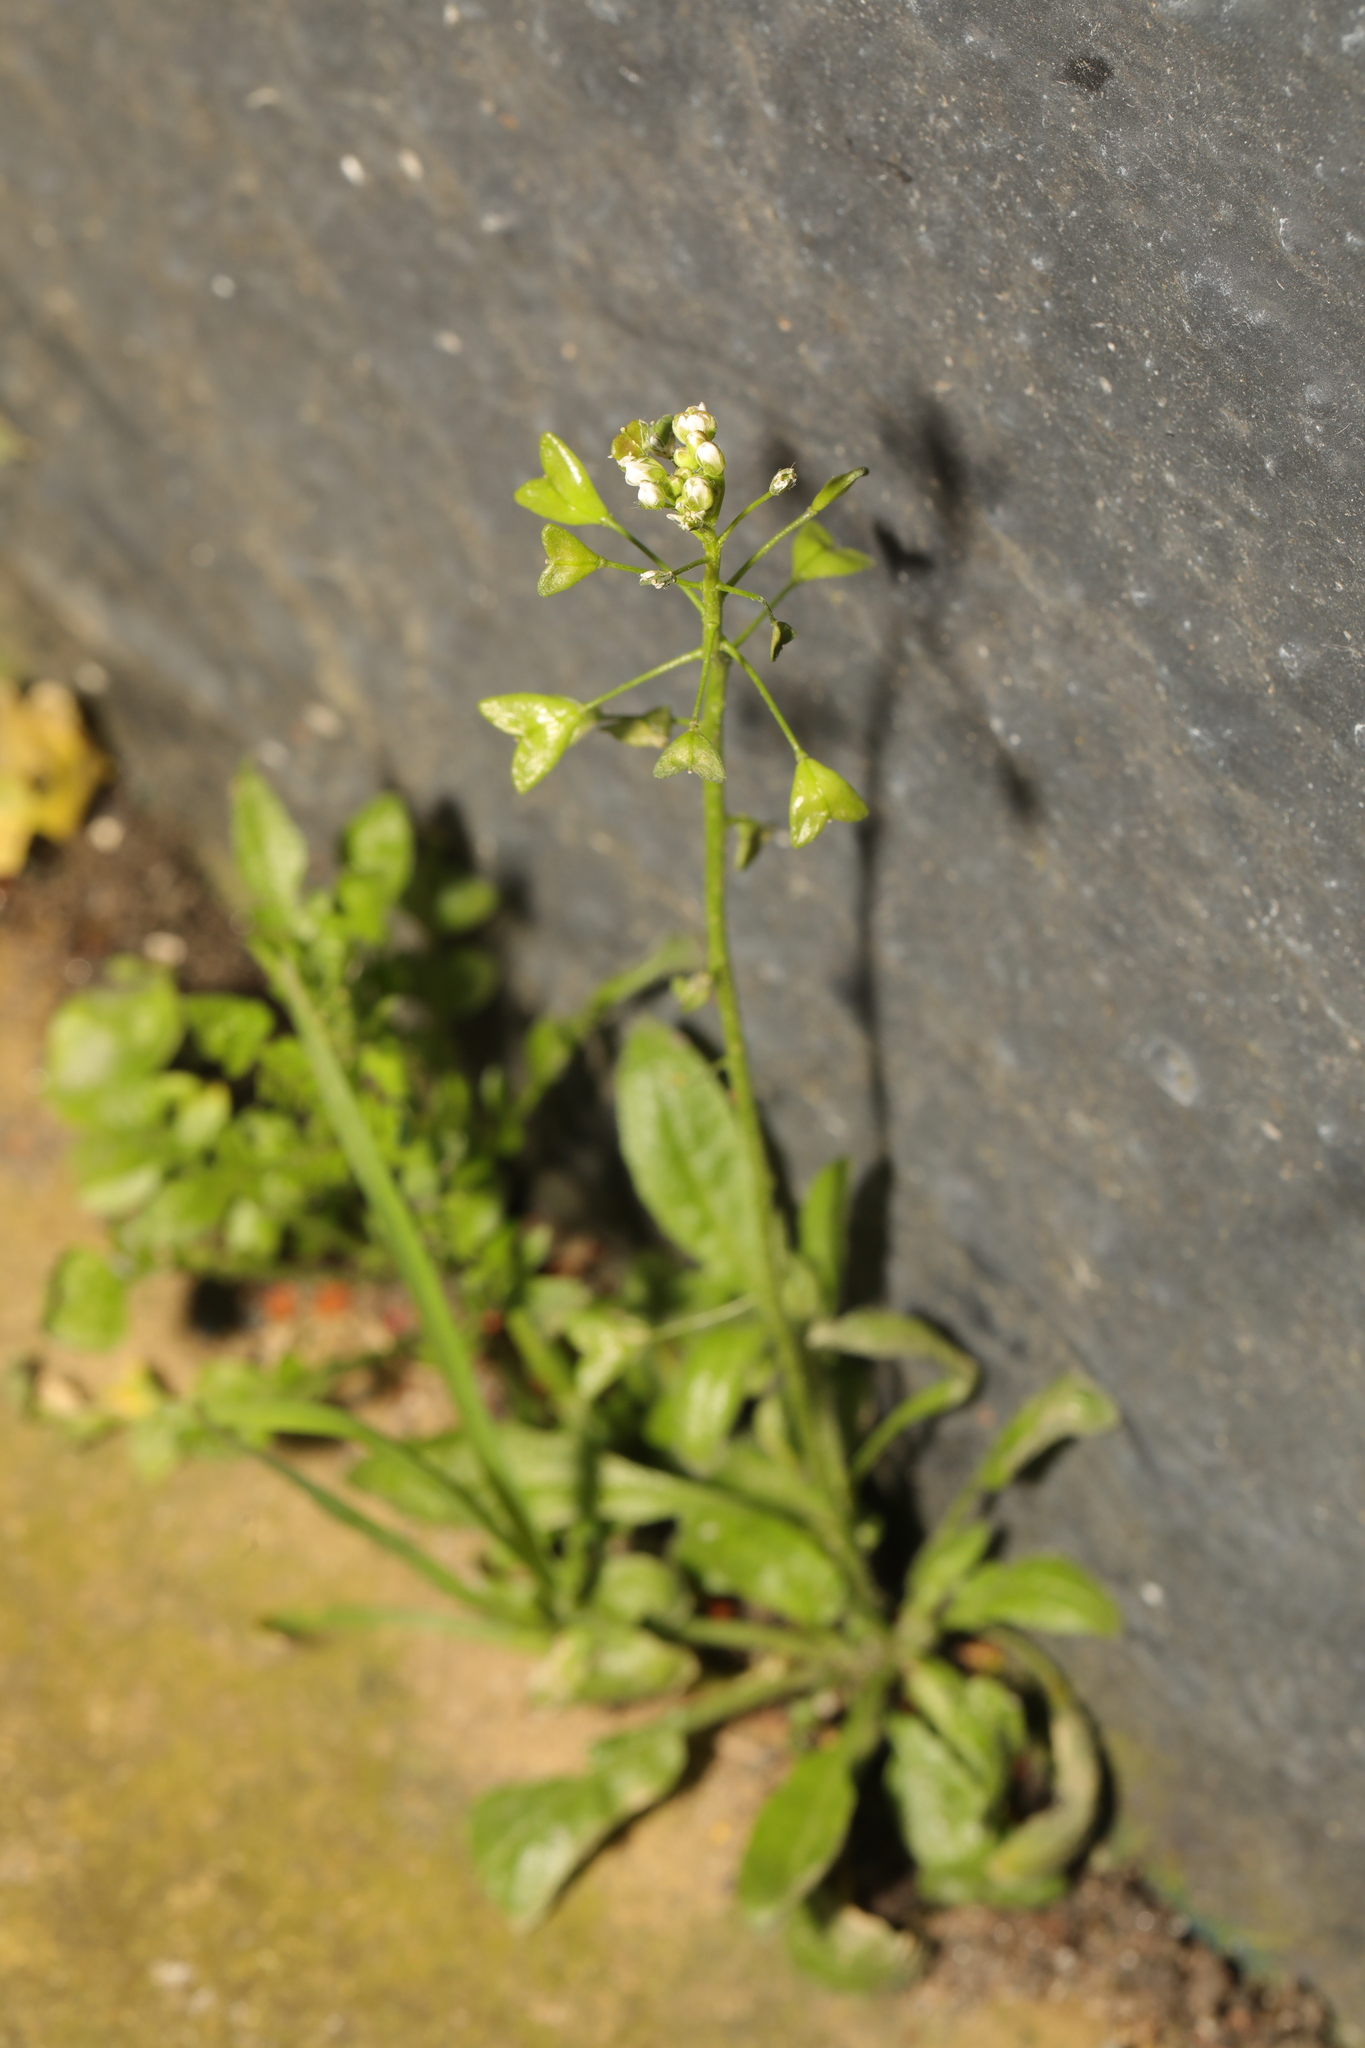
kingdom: Plantae
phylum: Tracheophyta
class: Magnoliopsida
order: Brassicales
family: Brassicaceae
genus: Capsella
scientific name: Capsella bursa-pastoris
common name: Shepherd's purse
